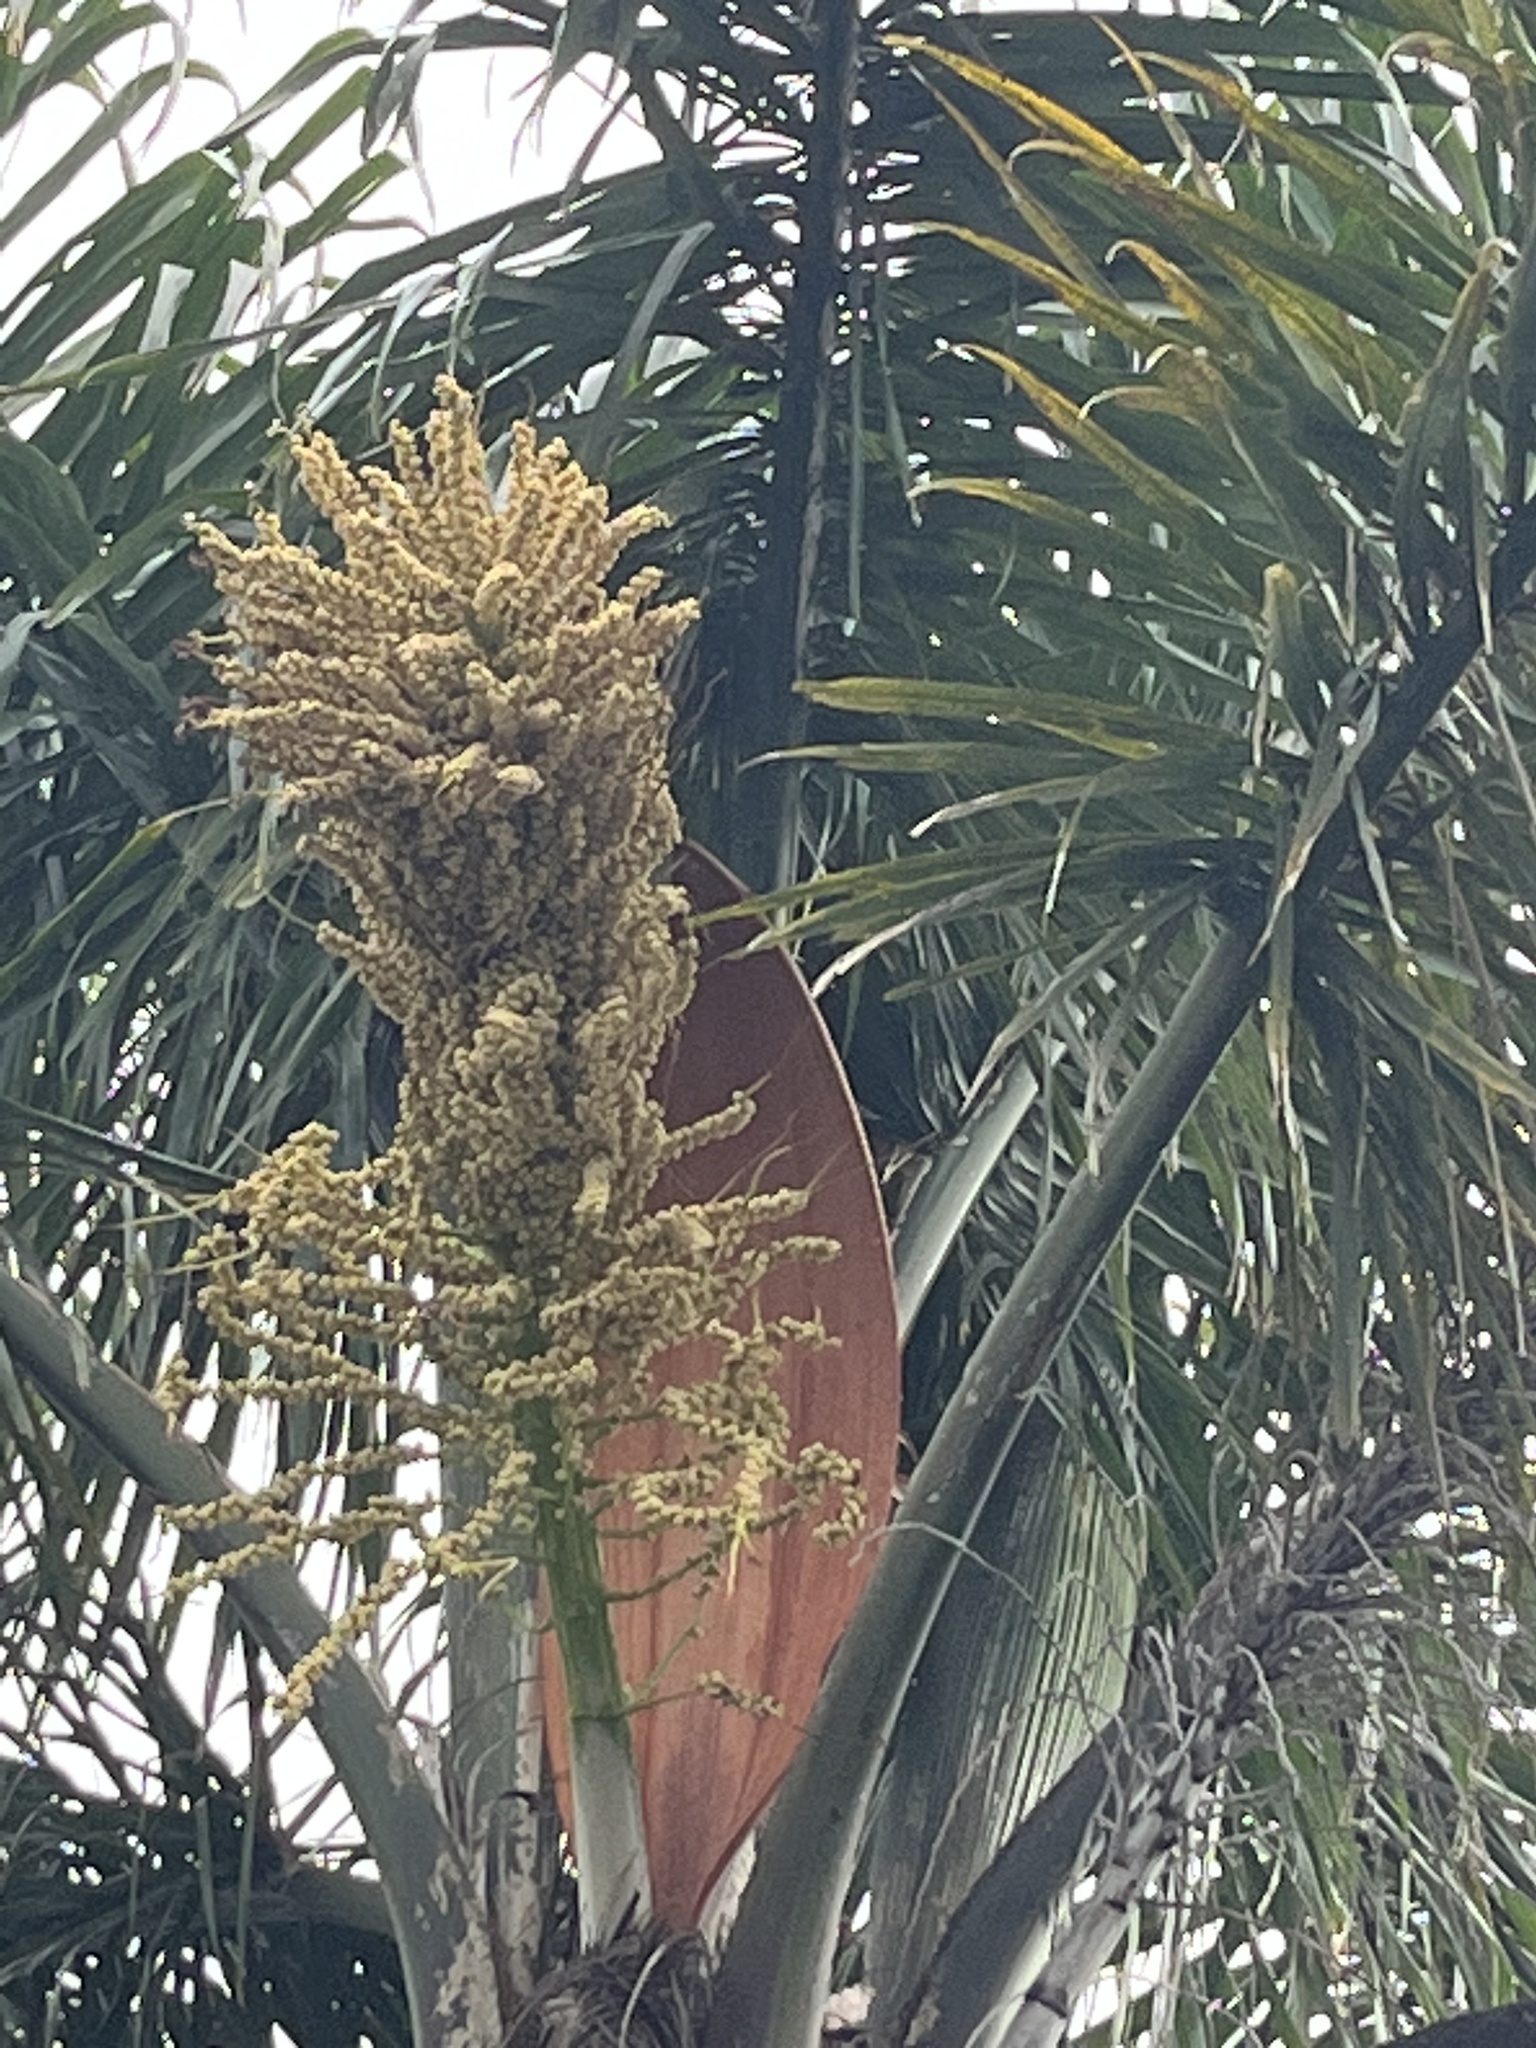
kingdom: Plantae
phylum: Tracheophyta
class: Liliopsida
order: Arecales
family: Arecaceae
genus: Syagrus
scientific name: Syagrus romanzoffiana
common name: Queen palm
